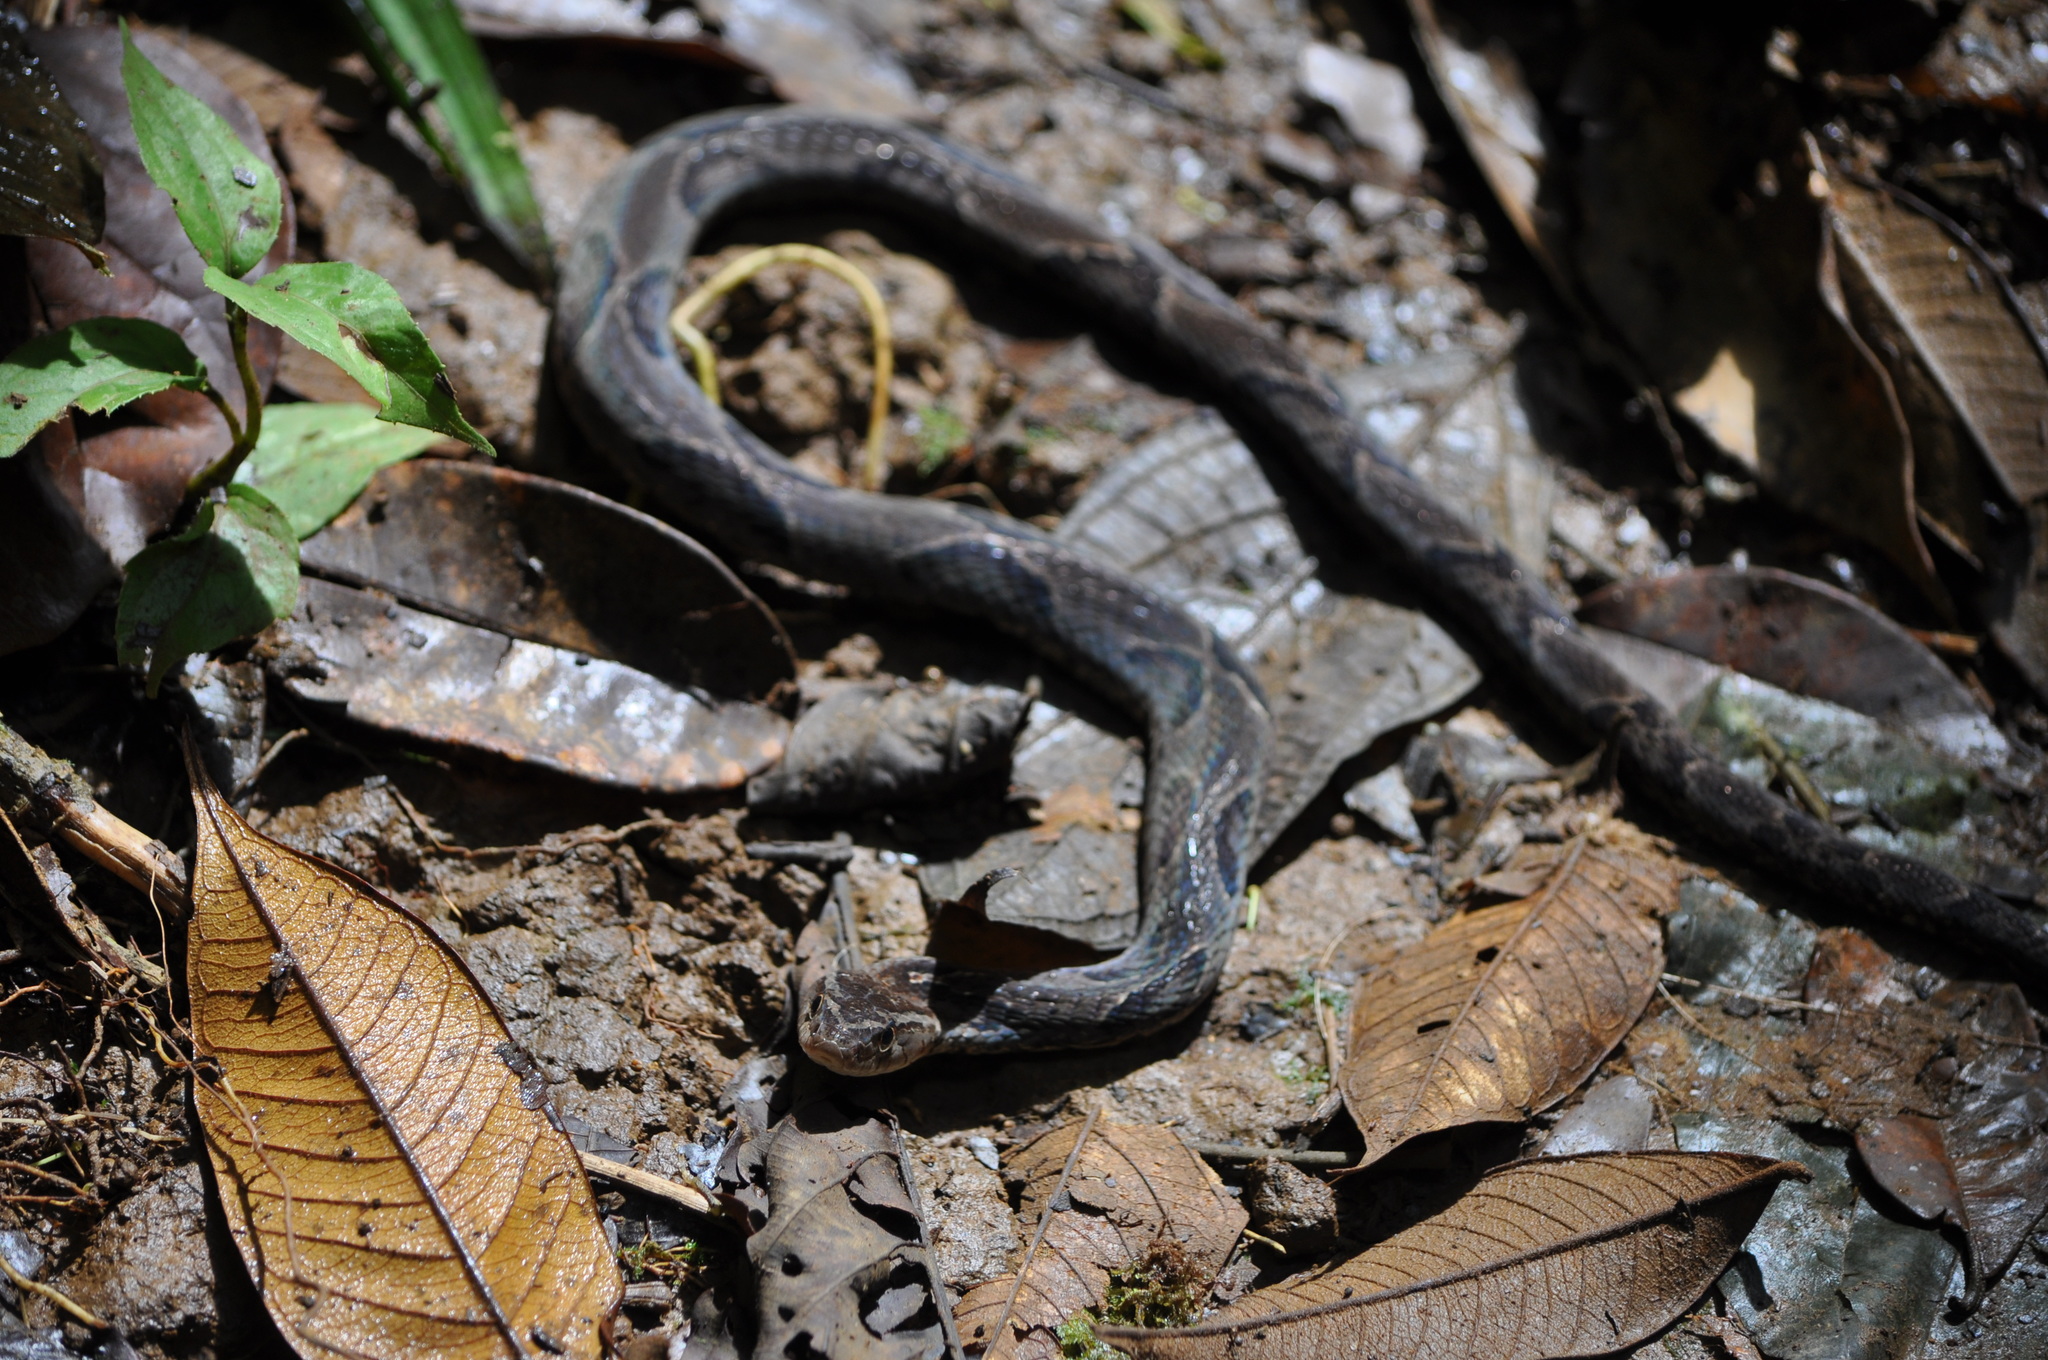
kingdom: Animalia
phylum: Chordata
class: Squamata
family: Colubridae
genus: Xenodon
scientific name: Xenodon rabdocephalus
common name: False fer-de-lance
